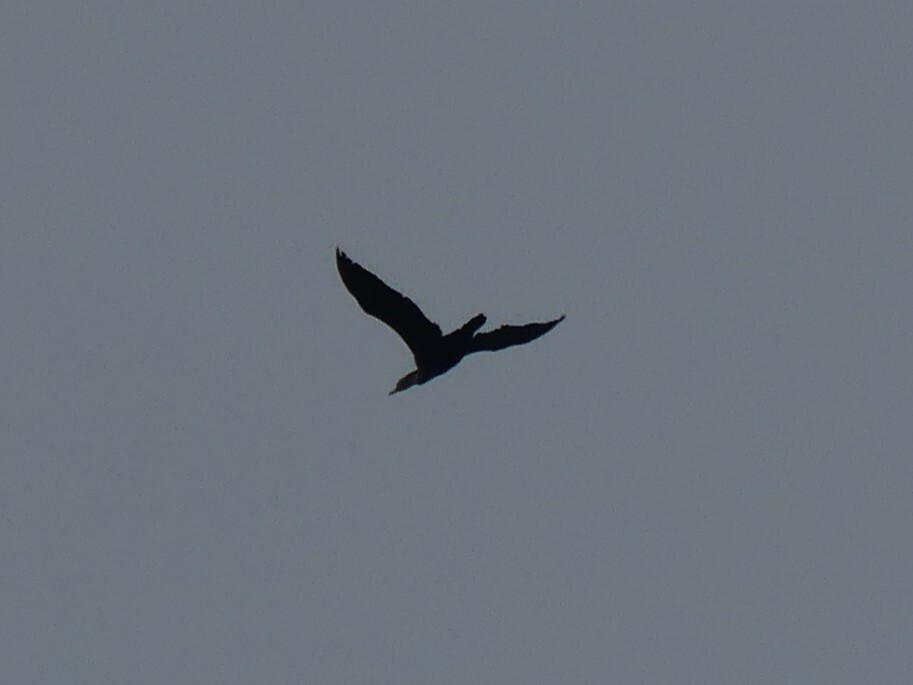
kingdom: Animalia
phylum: Chordata
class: Aves
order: Suliformes
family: Phalacrocoracidae
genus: Phalacrocorax
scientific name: Phalacrocorax auritus
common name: Double-crested cormorant
